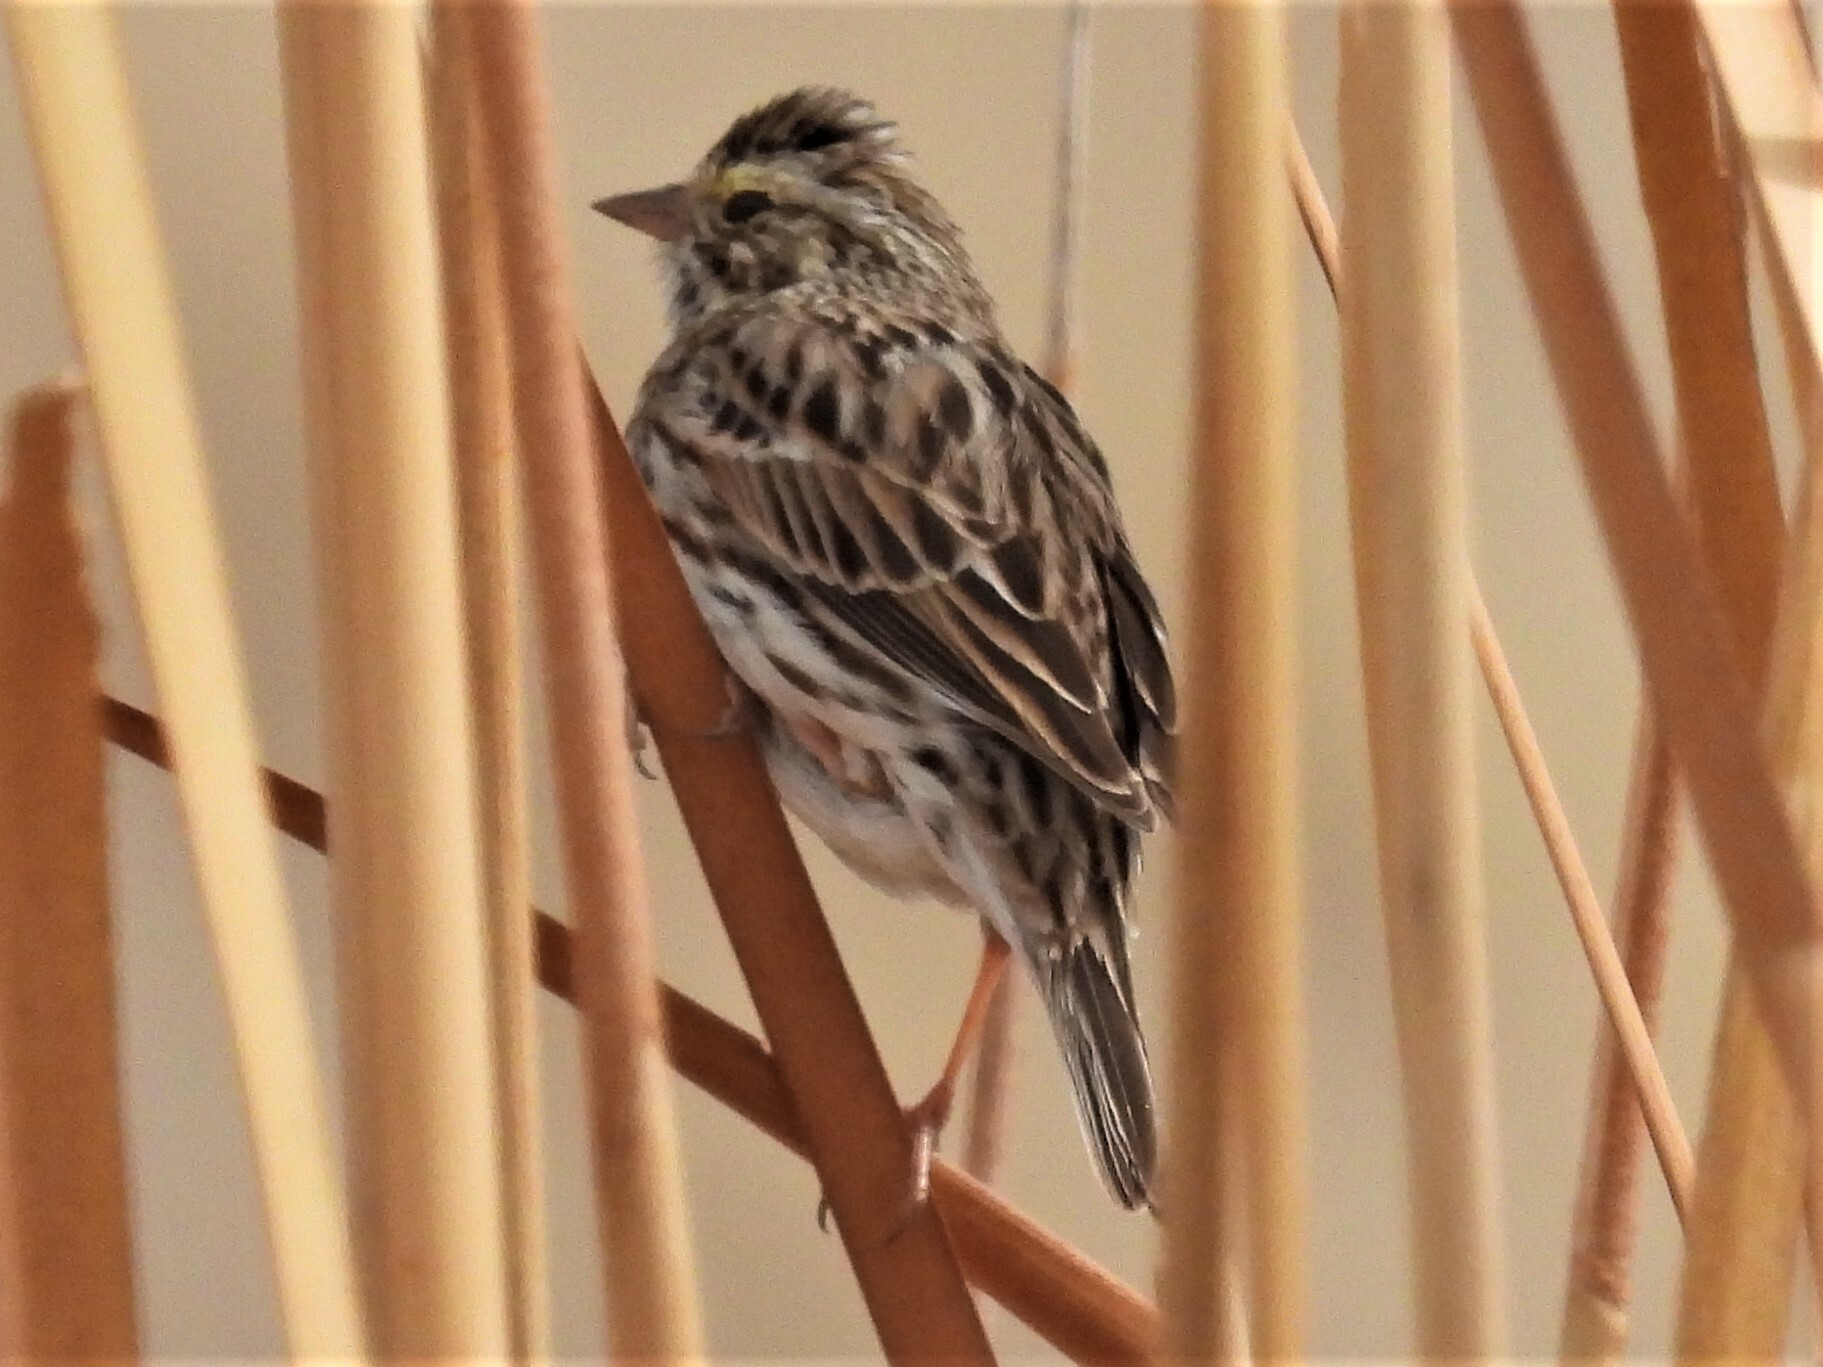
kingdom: Animalia
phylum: Chordata
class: Aves
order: Passeriformes
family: Passerellidae
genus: Passerculus
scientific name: Passerculus sandwichensis
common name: Savannah sparrow
